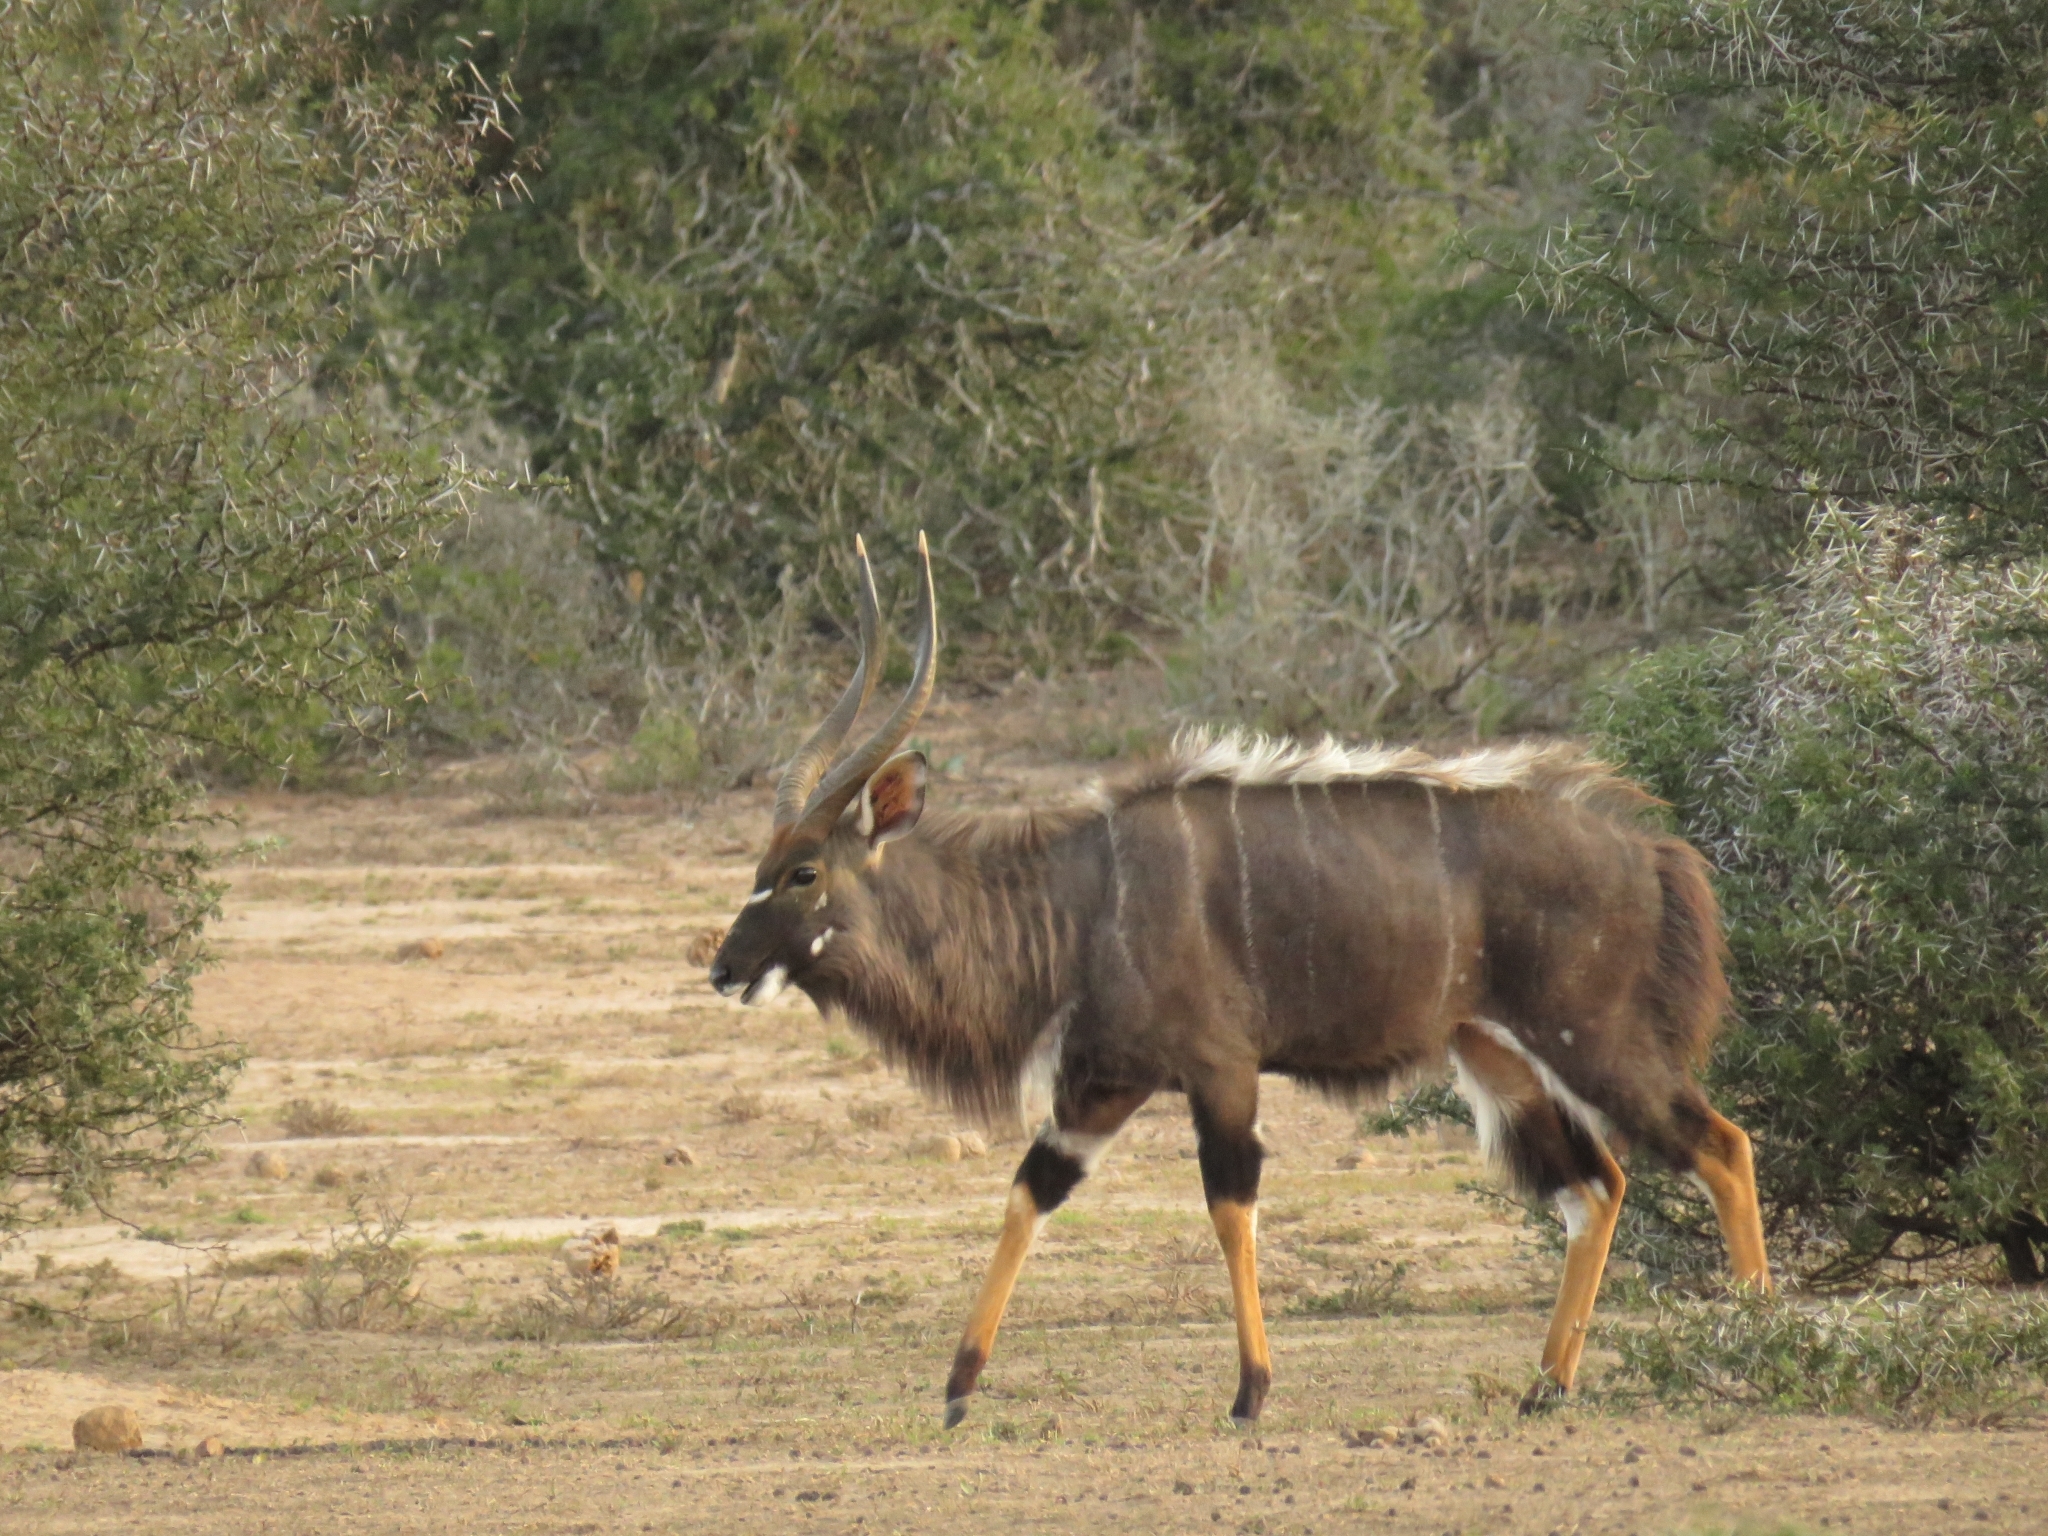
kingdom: Animalia
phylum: Chordata
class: Mammalia
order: Artiodactyla
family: Bovidae
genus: Tragelaphus
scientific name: Tragelaphus angasii
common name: Nyala
